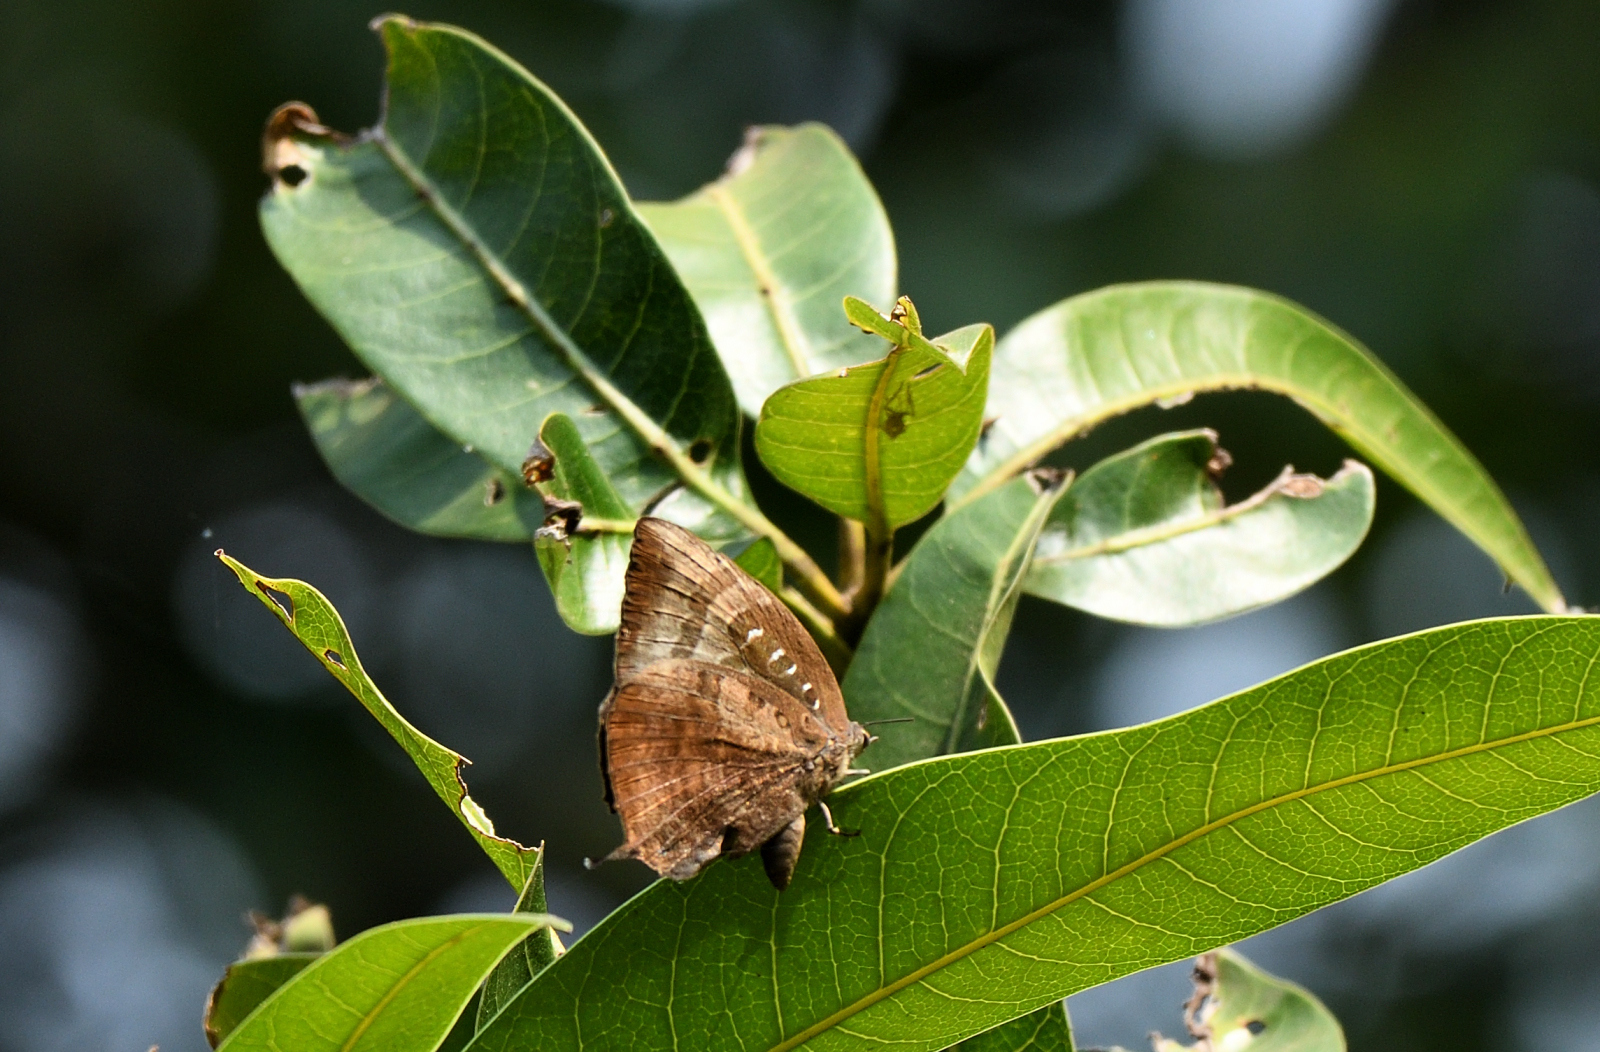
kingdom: Animalia
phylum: Arthropoda
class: Insecta
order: Lepidoptera
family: Lycaenidae
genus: Arhopala
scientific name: Arhopala centaurus
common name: Dull oak-blue
